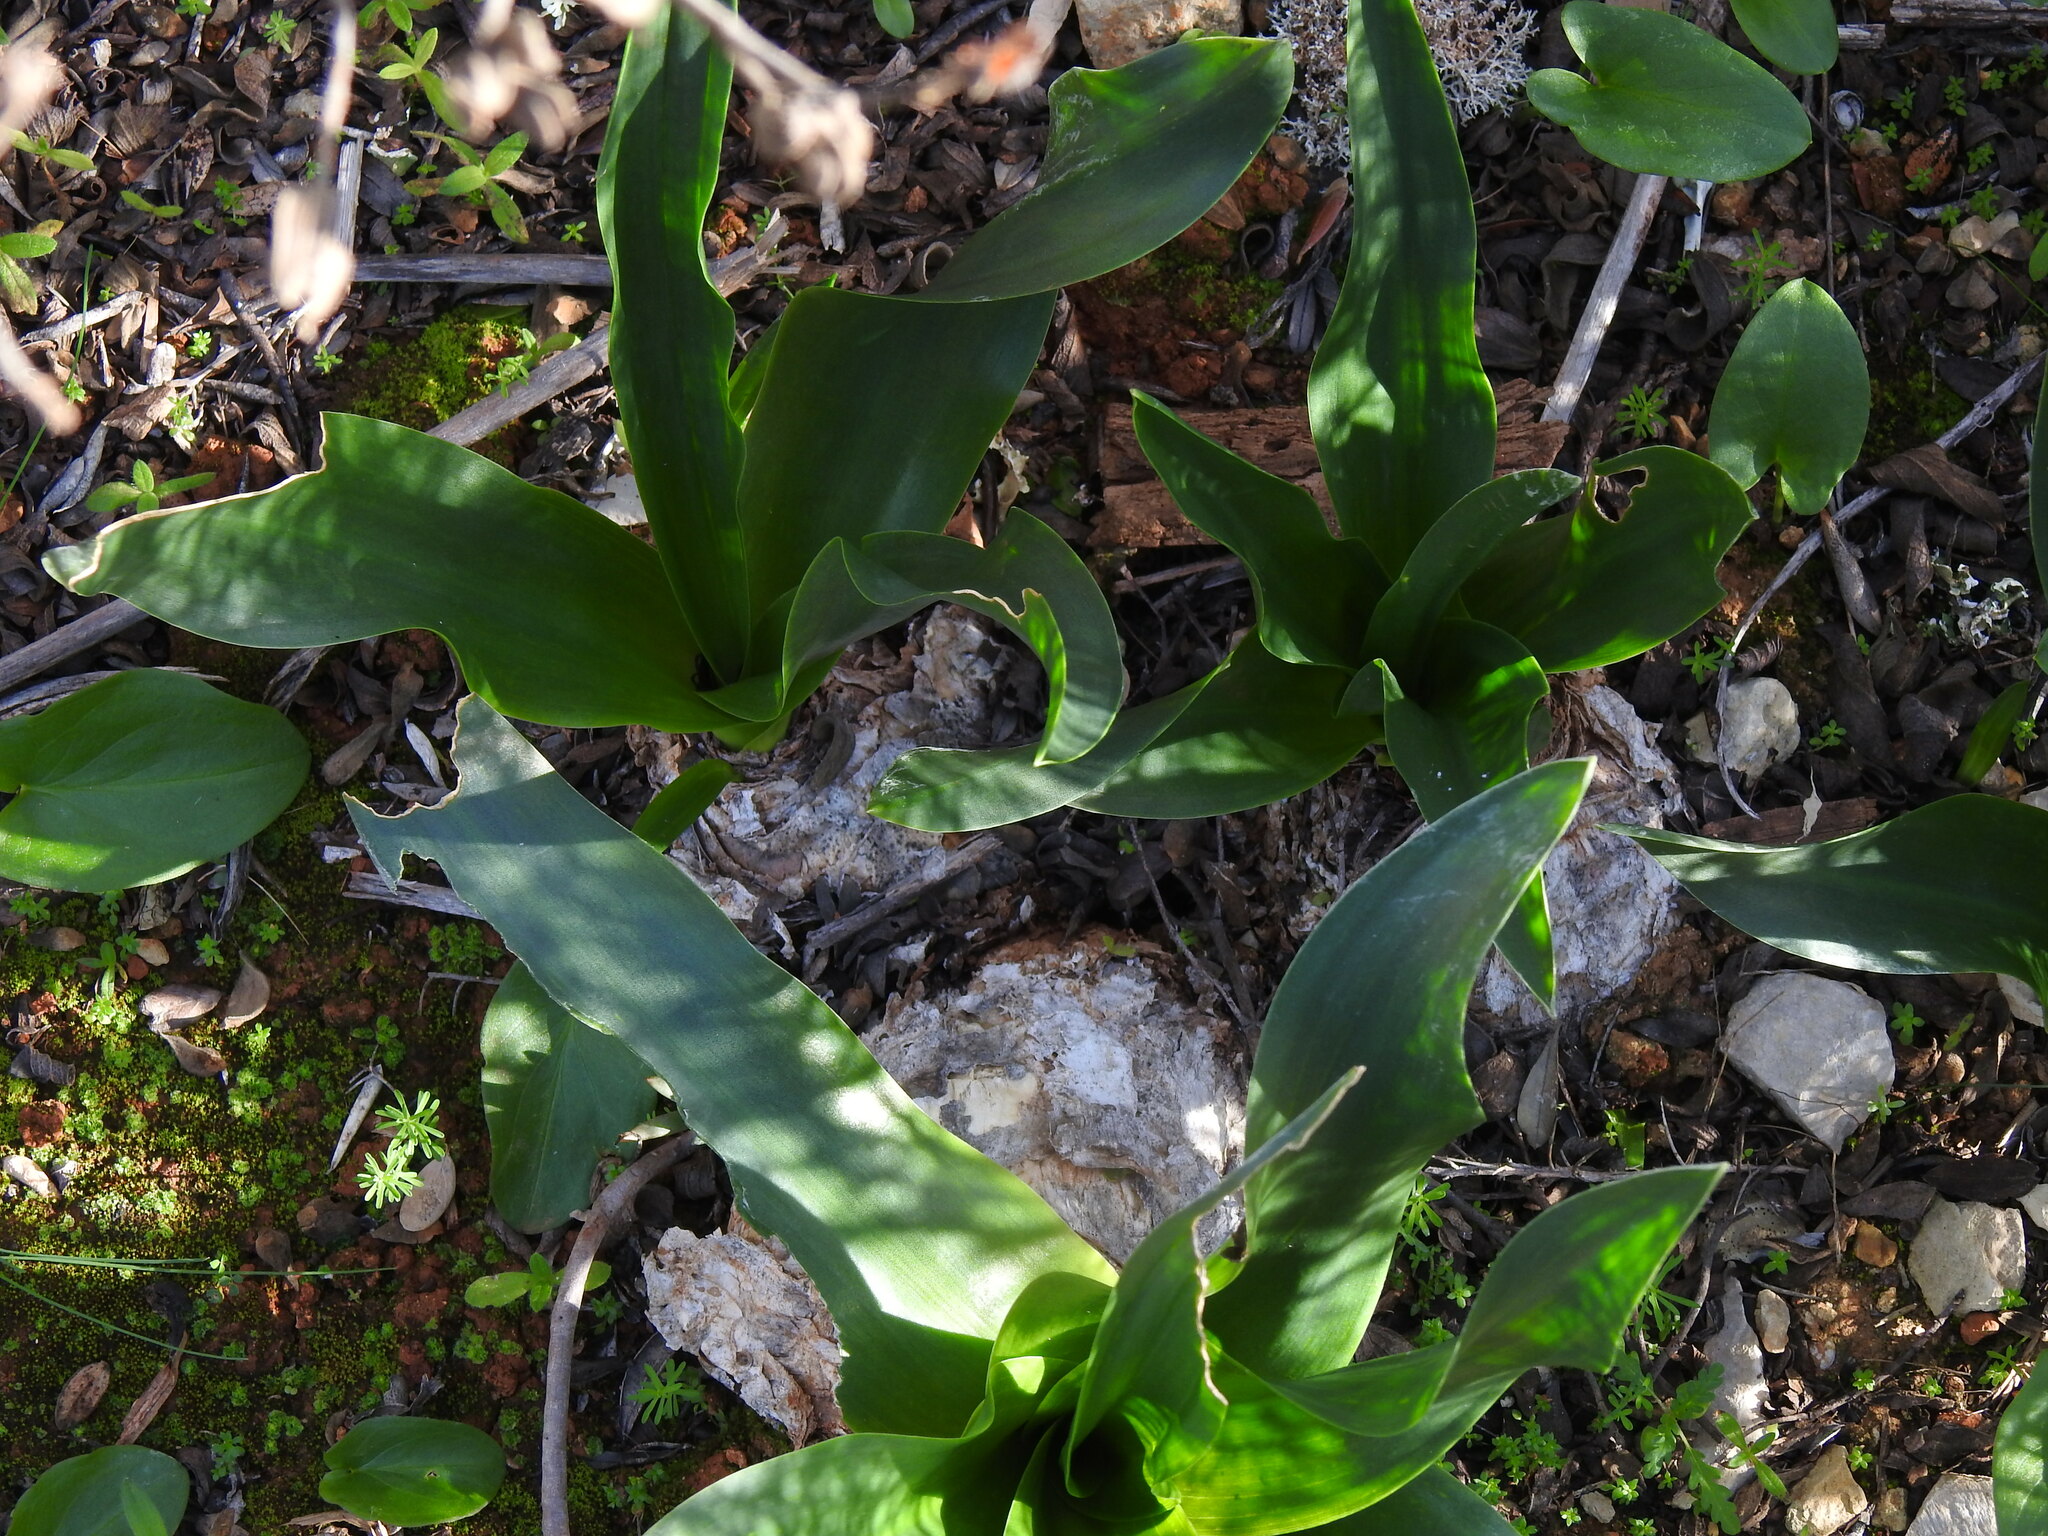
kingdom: Plantae
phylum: Tracheophyta
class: Liliopsida
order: Asparagales
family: Asparagaceae
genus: Drimia
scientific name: Drimia maritima
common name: Maritime squill
